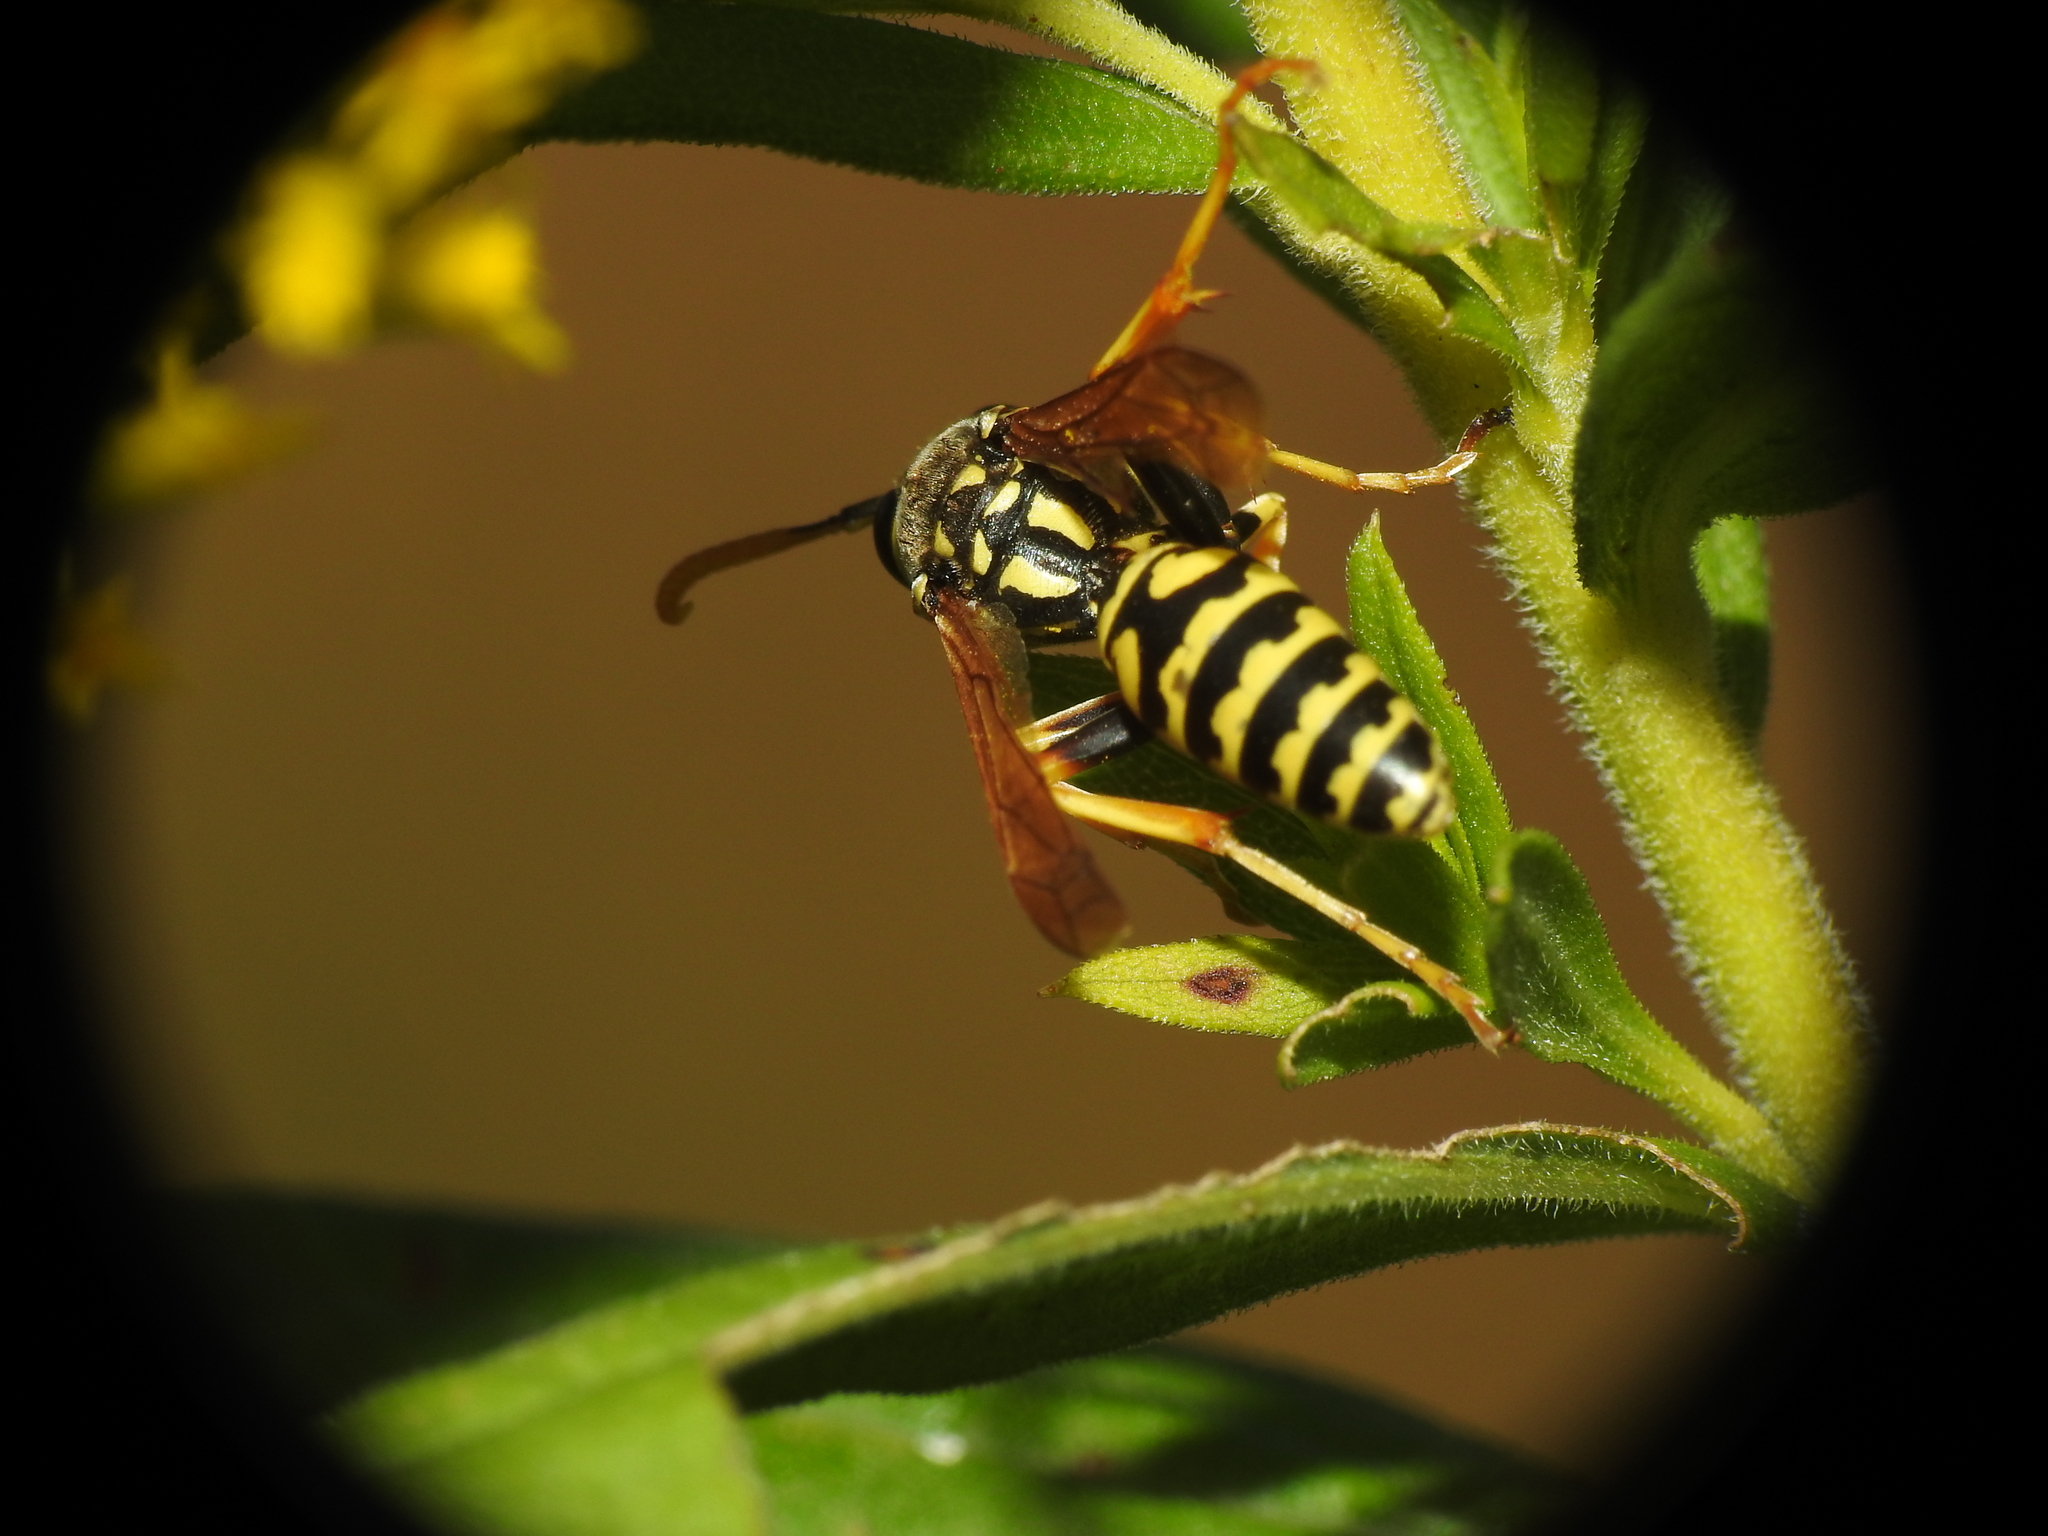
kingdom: Animalia
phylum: Arthropoda
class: Insecta
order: Hymenoptera
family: Eumenidae
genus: Polistes
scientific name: Polistes dominula
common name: Paper wasp
